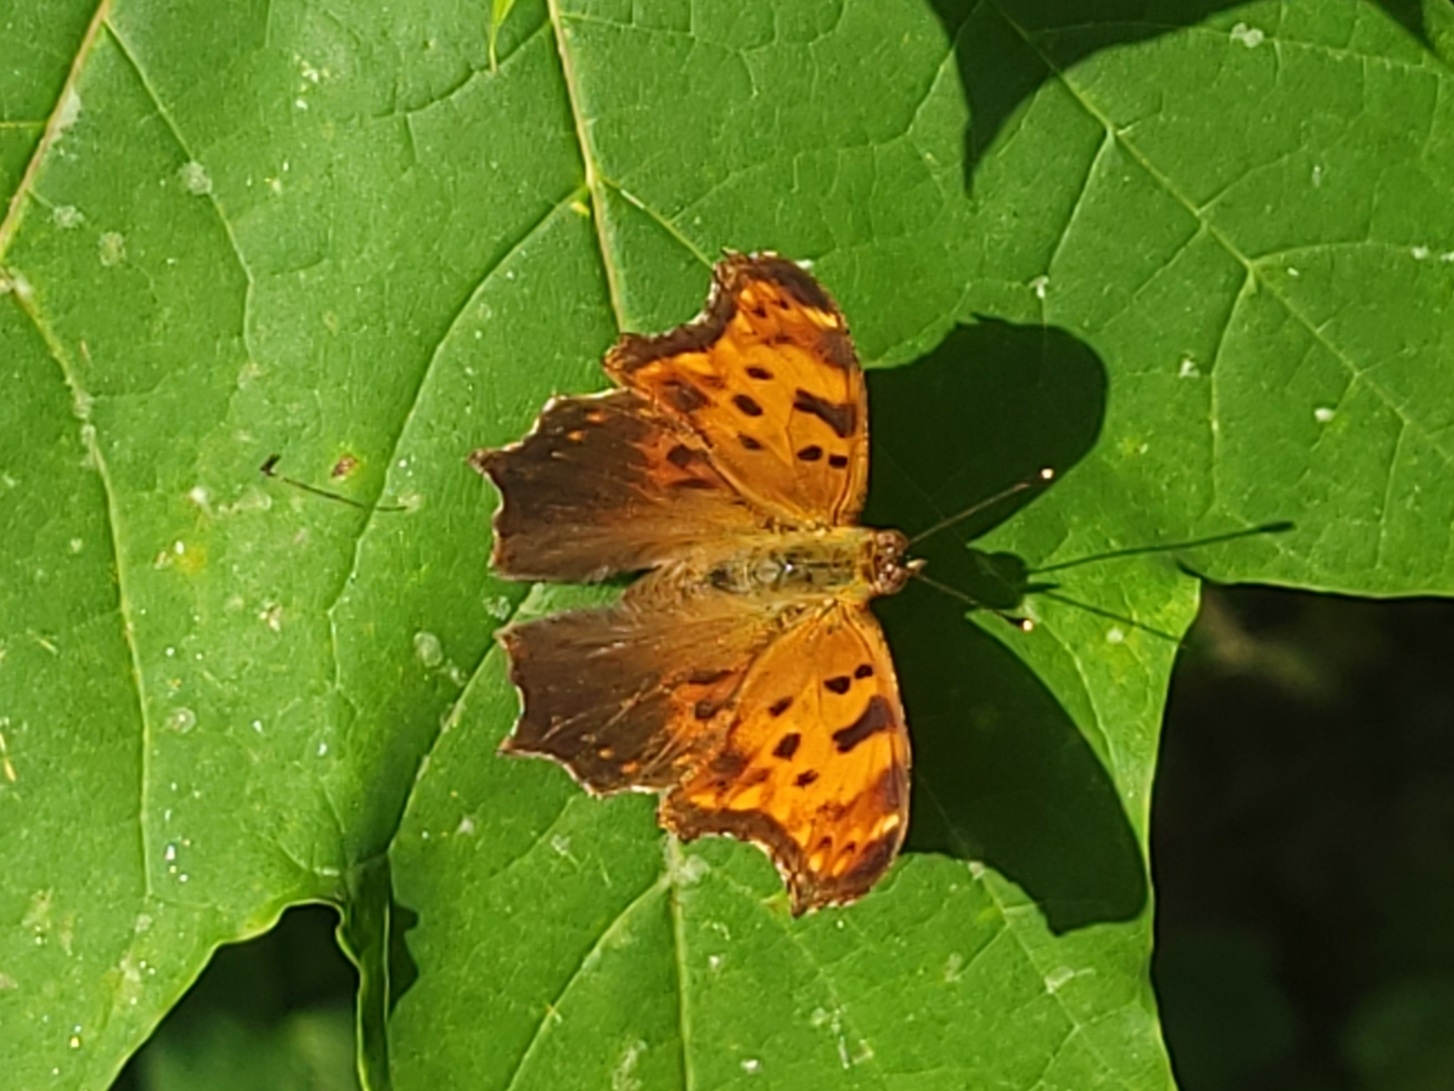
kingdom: Animalia
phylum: Arthropoda
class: Insecta
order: Lepidoptera
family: Nymphalidae
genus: Polygonia
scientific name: Polygonia comma
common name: Eastern comma
